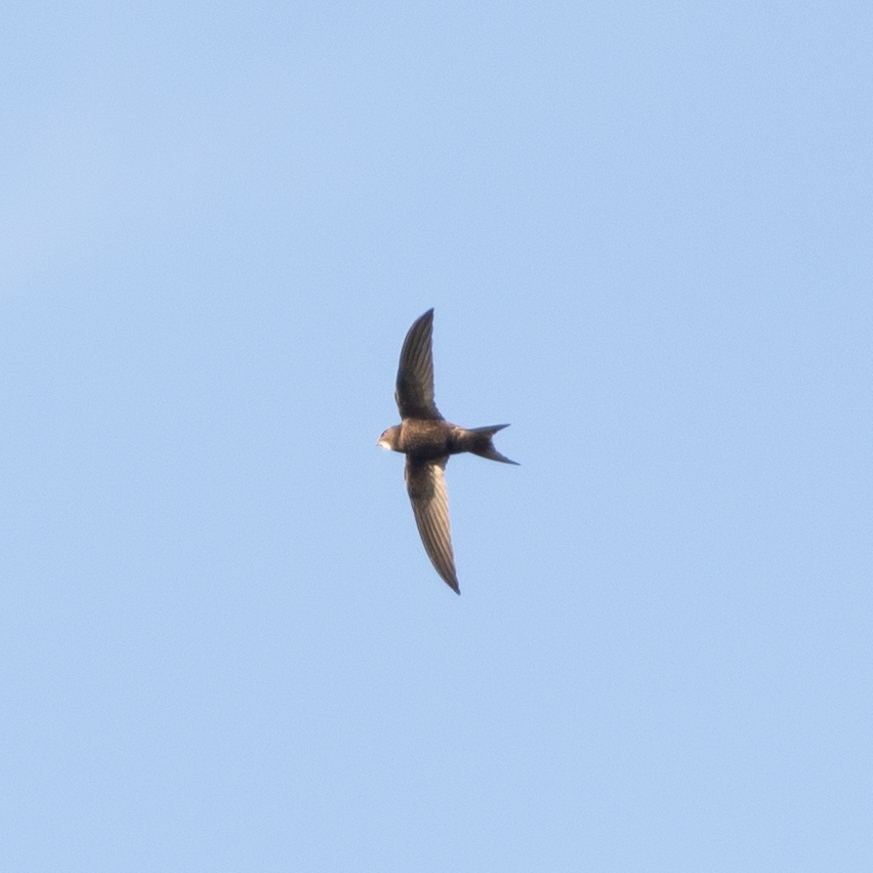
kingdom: Animalia
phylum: Chordata
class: Aves
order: Apodiformes
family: Apodidae
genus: Apus
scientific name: Apus apus
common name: Common swift
